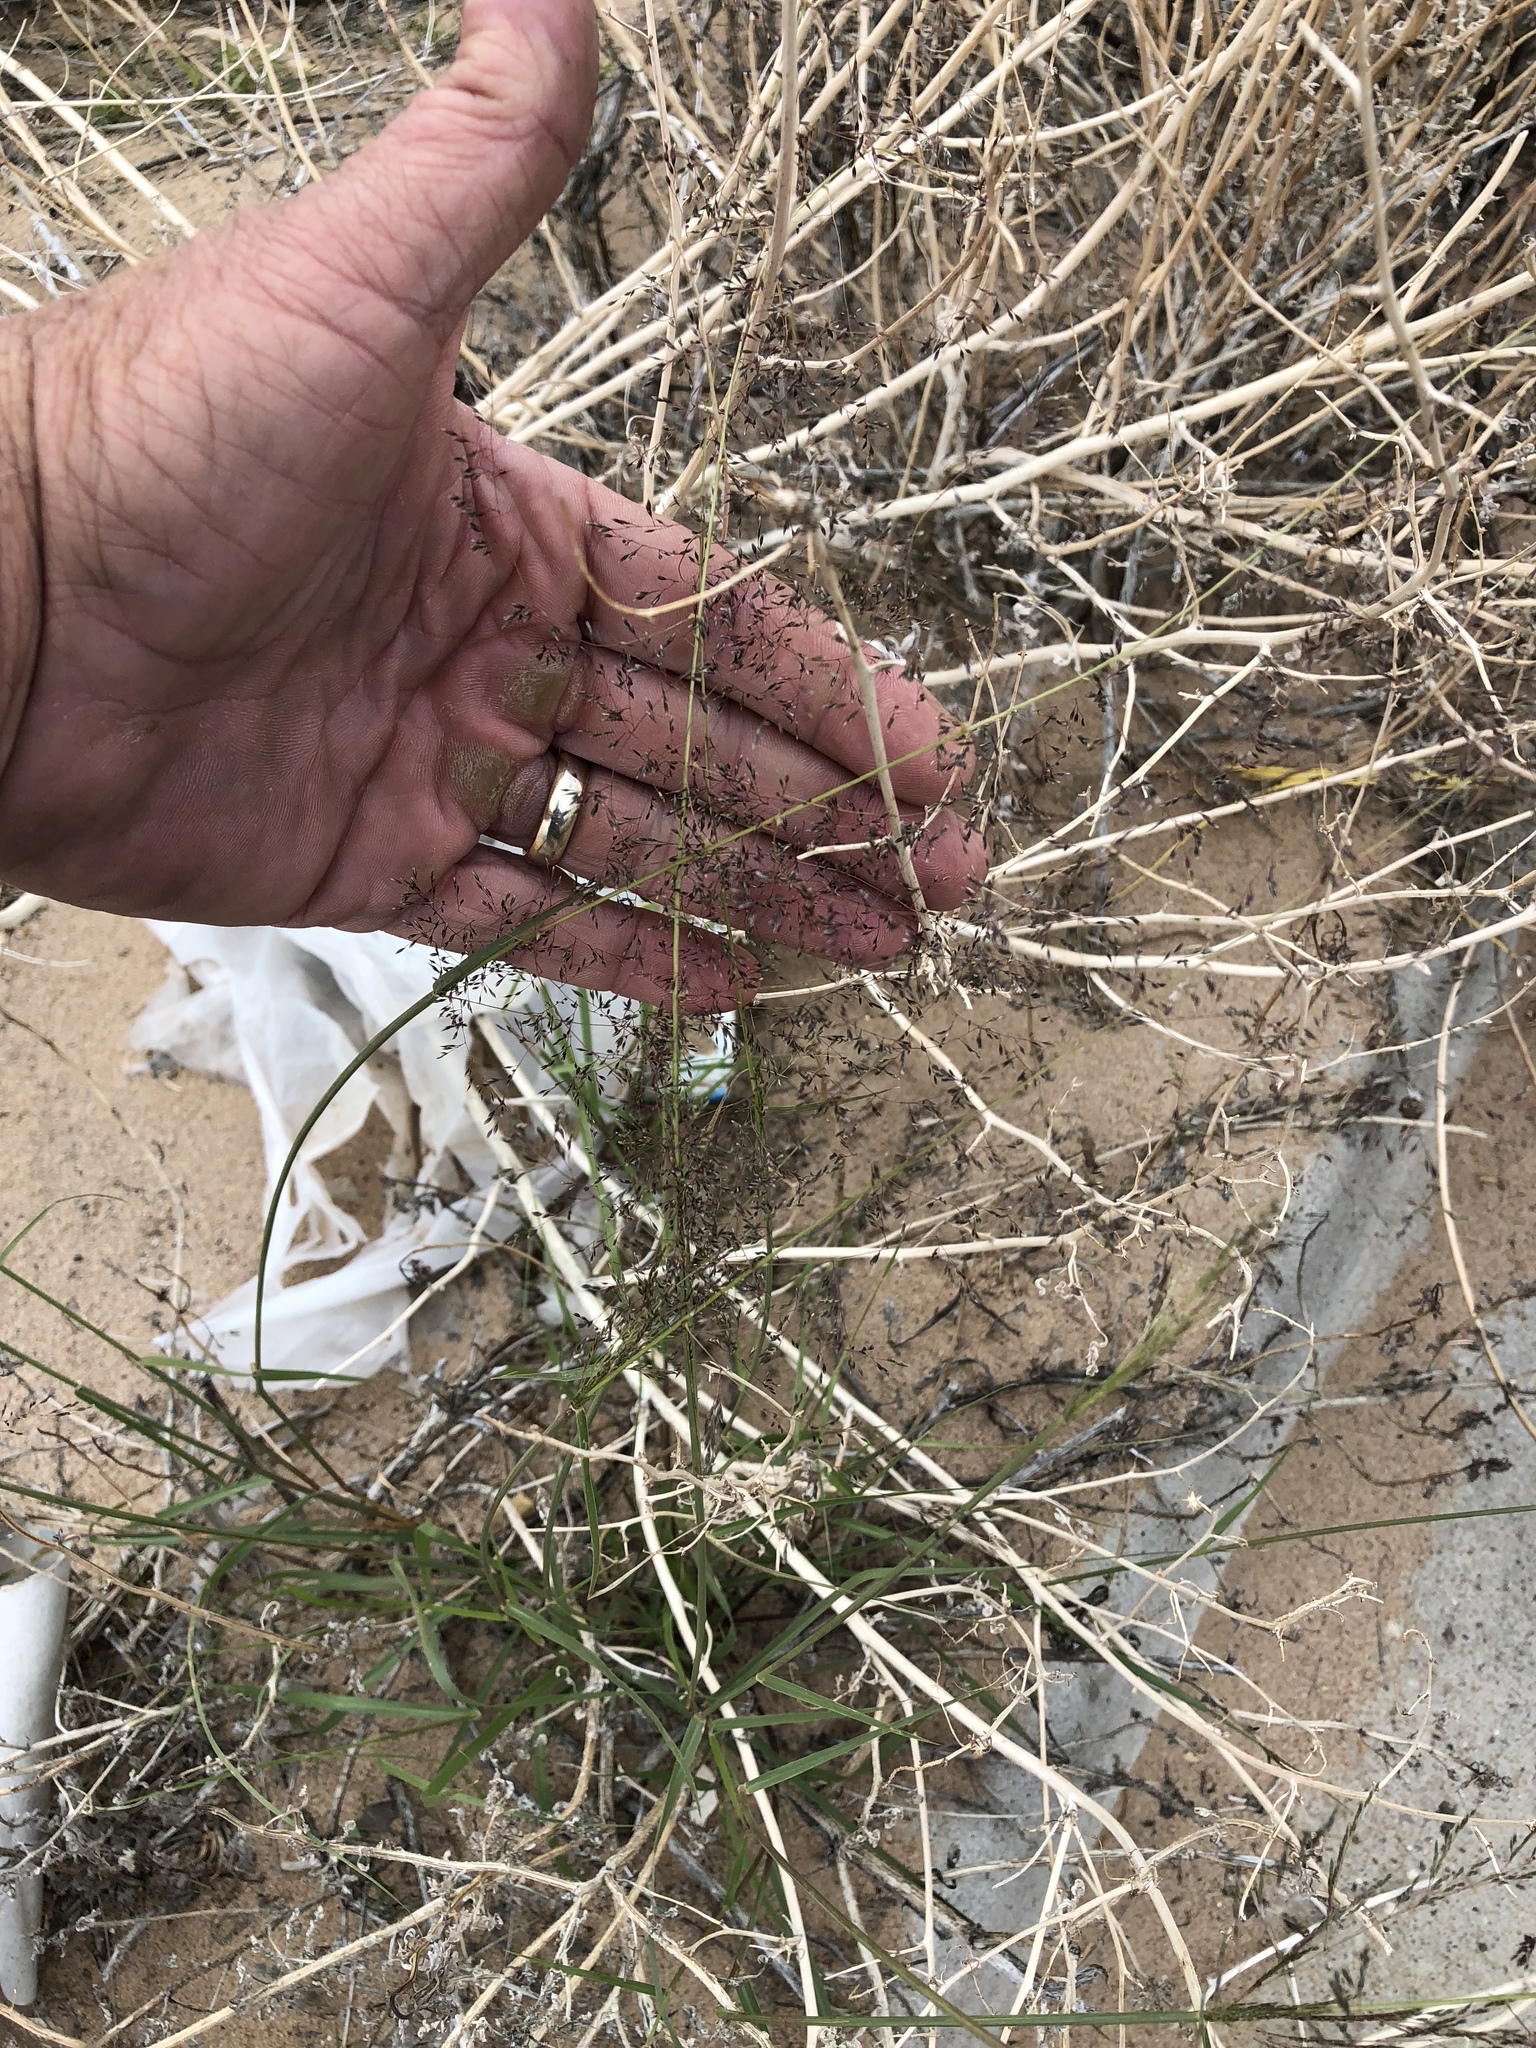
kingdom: Plantae
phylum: Tracheophyta
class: Liliopsida
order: Poales
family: Poaceae
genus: Sporobolus
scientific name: Sporobolus flexuosus
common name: Mesa dropseed
